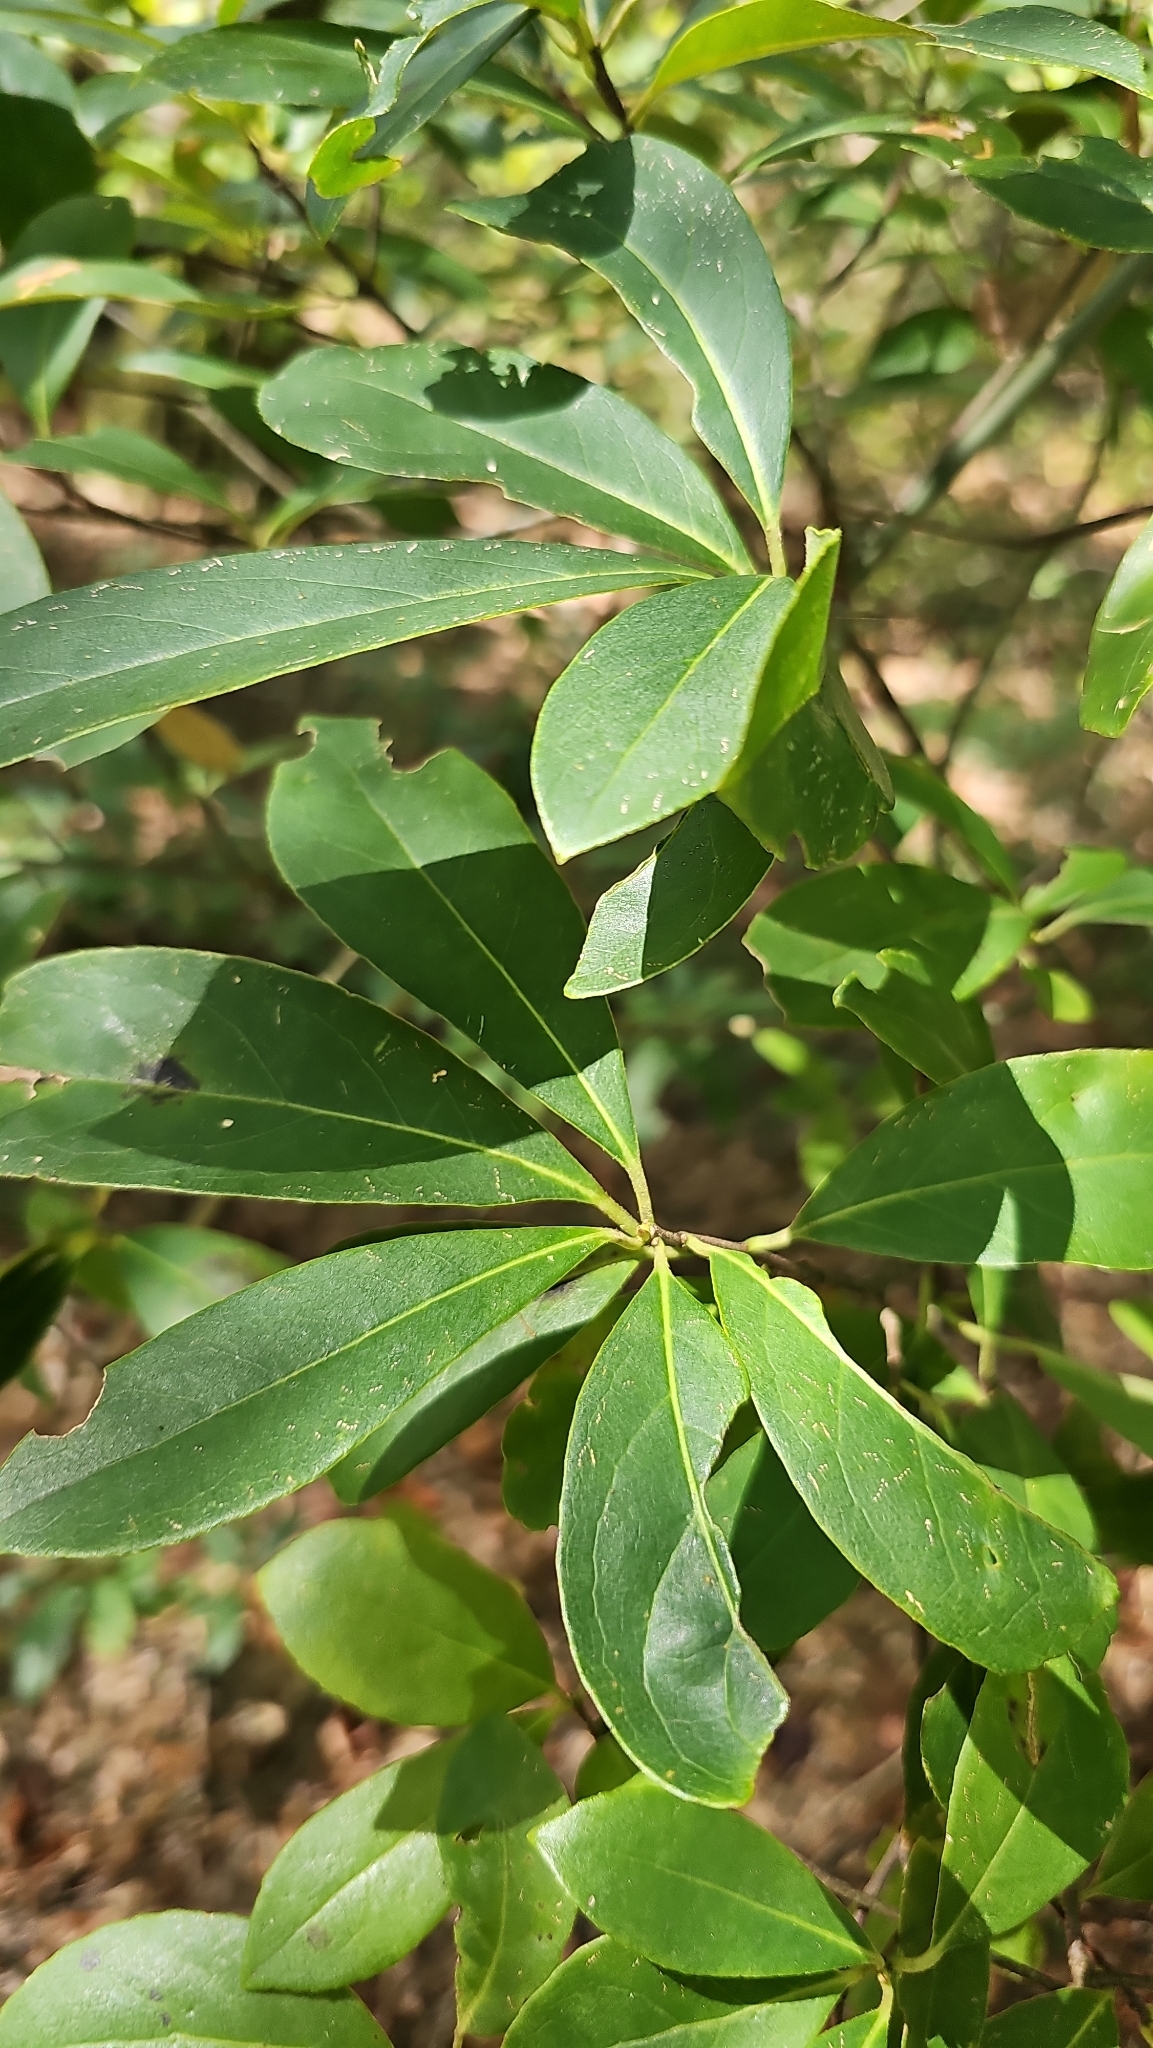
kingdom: Plantae
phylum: Tracheophyta
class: Magnoliopsida
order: Ericales
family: Symplocaceae
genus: Symplocos
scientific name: Symplocos tinctoria
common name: Horse-sugar
